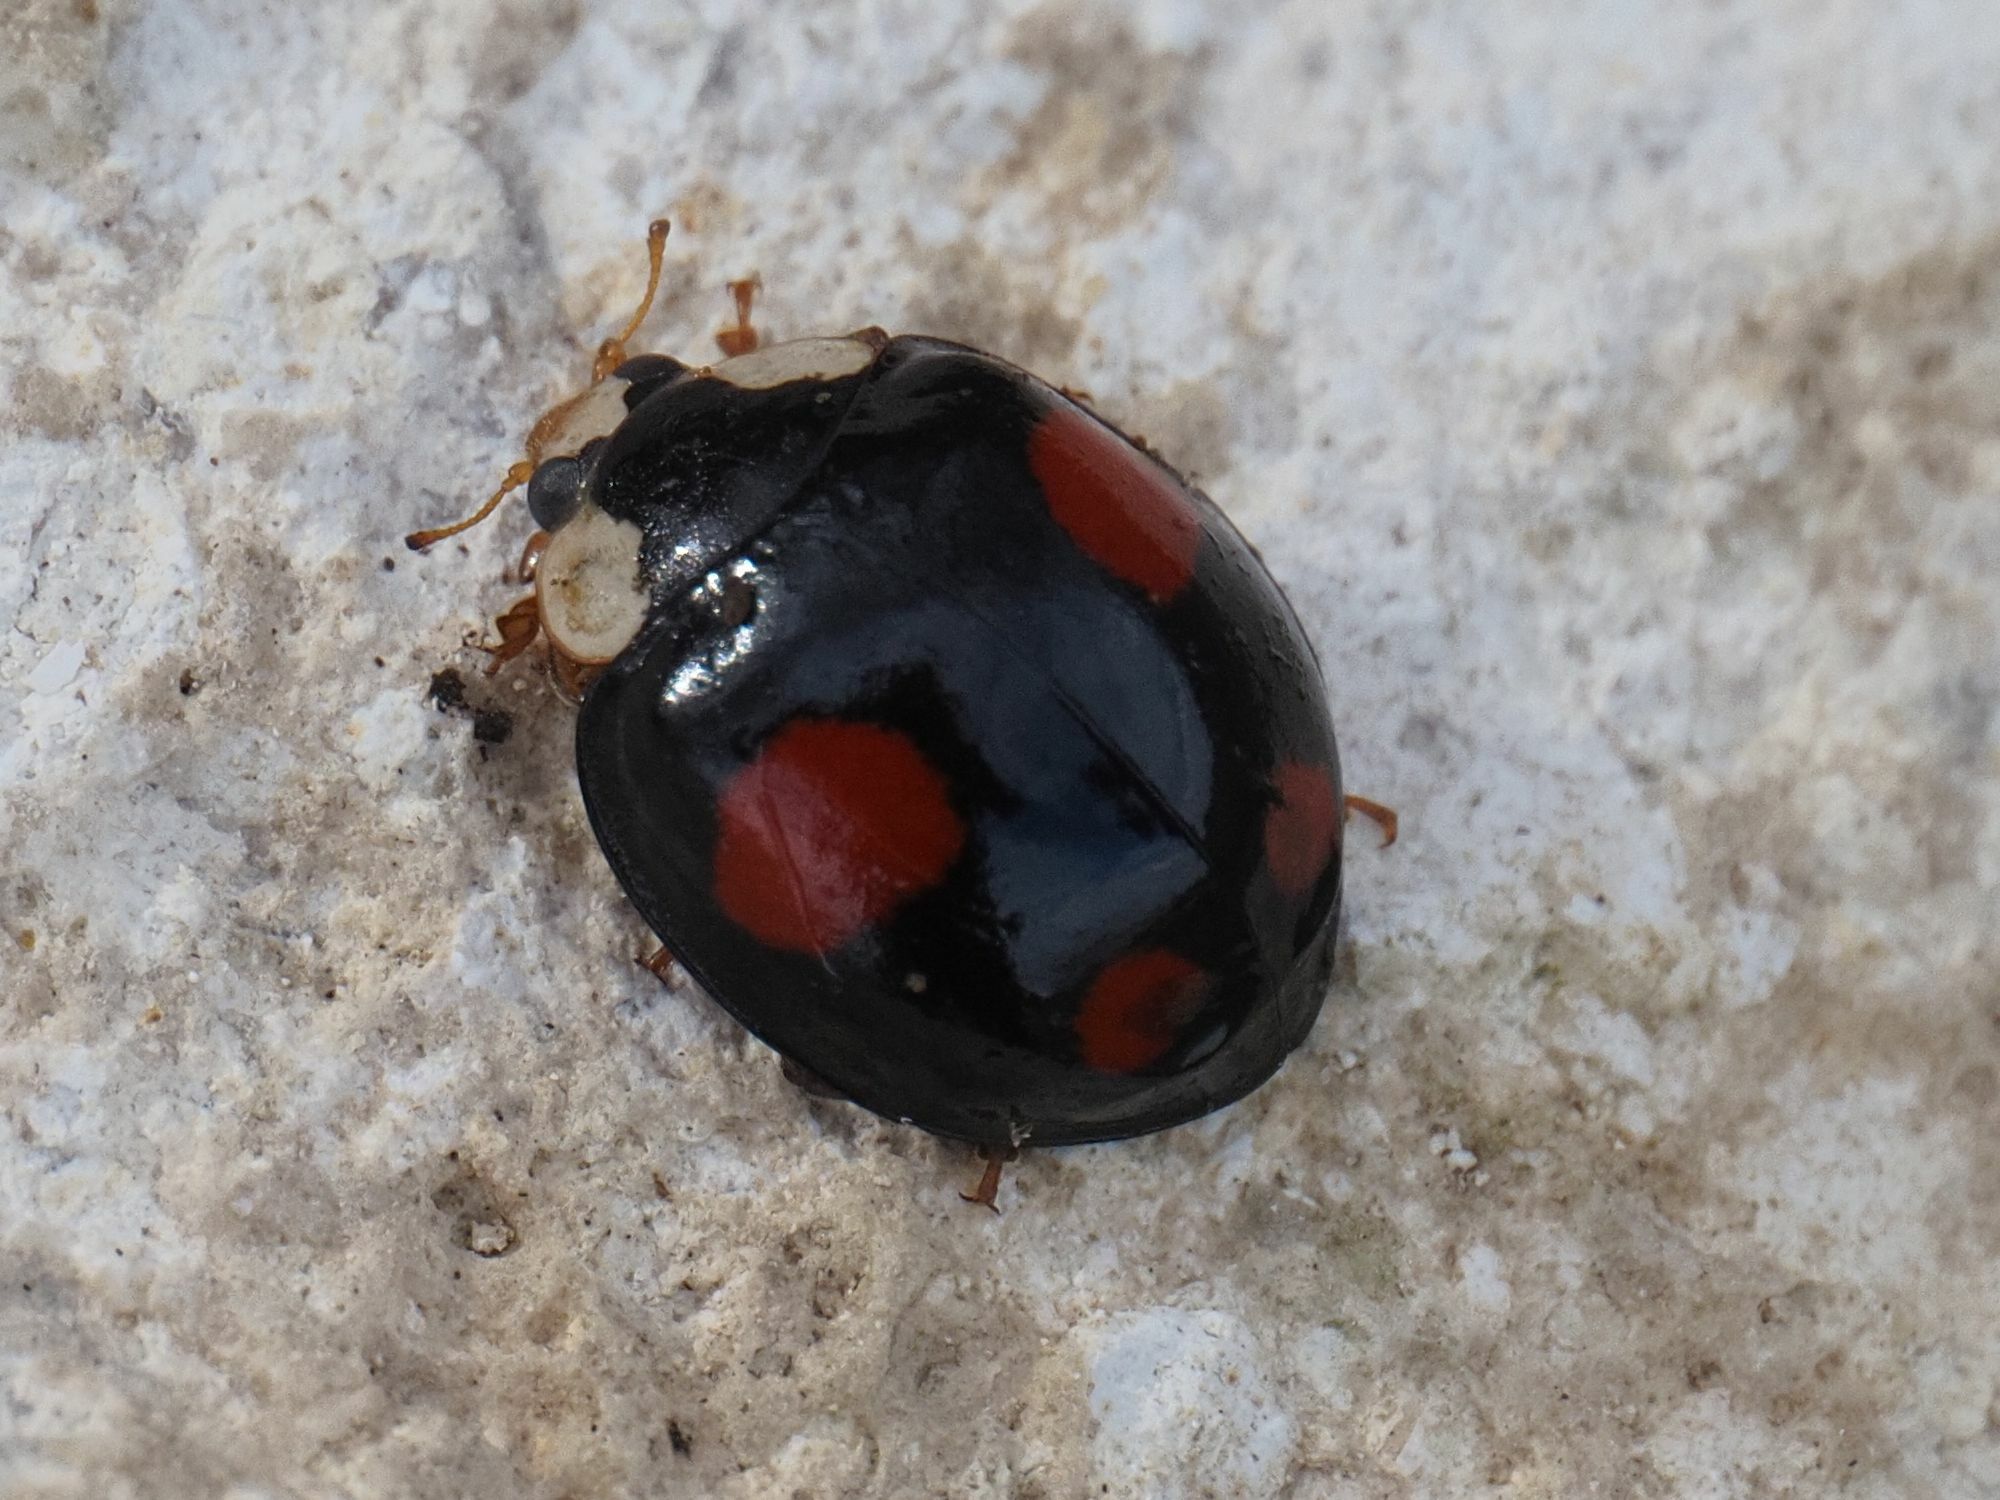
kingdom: Animalia
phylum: Arthropoda
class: Insecta
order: Coleoptera
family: Coccinellidae
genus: Harmonia
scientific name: Harmonia axyridis
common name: Harlequin ladybird
